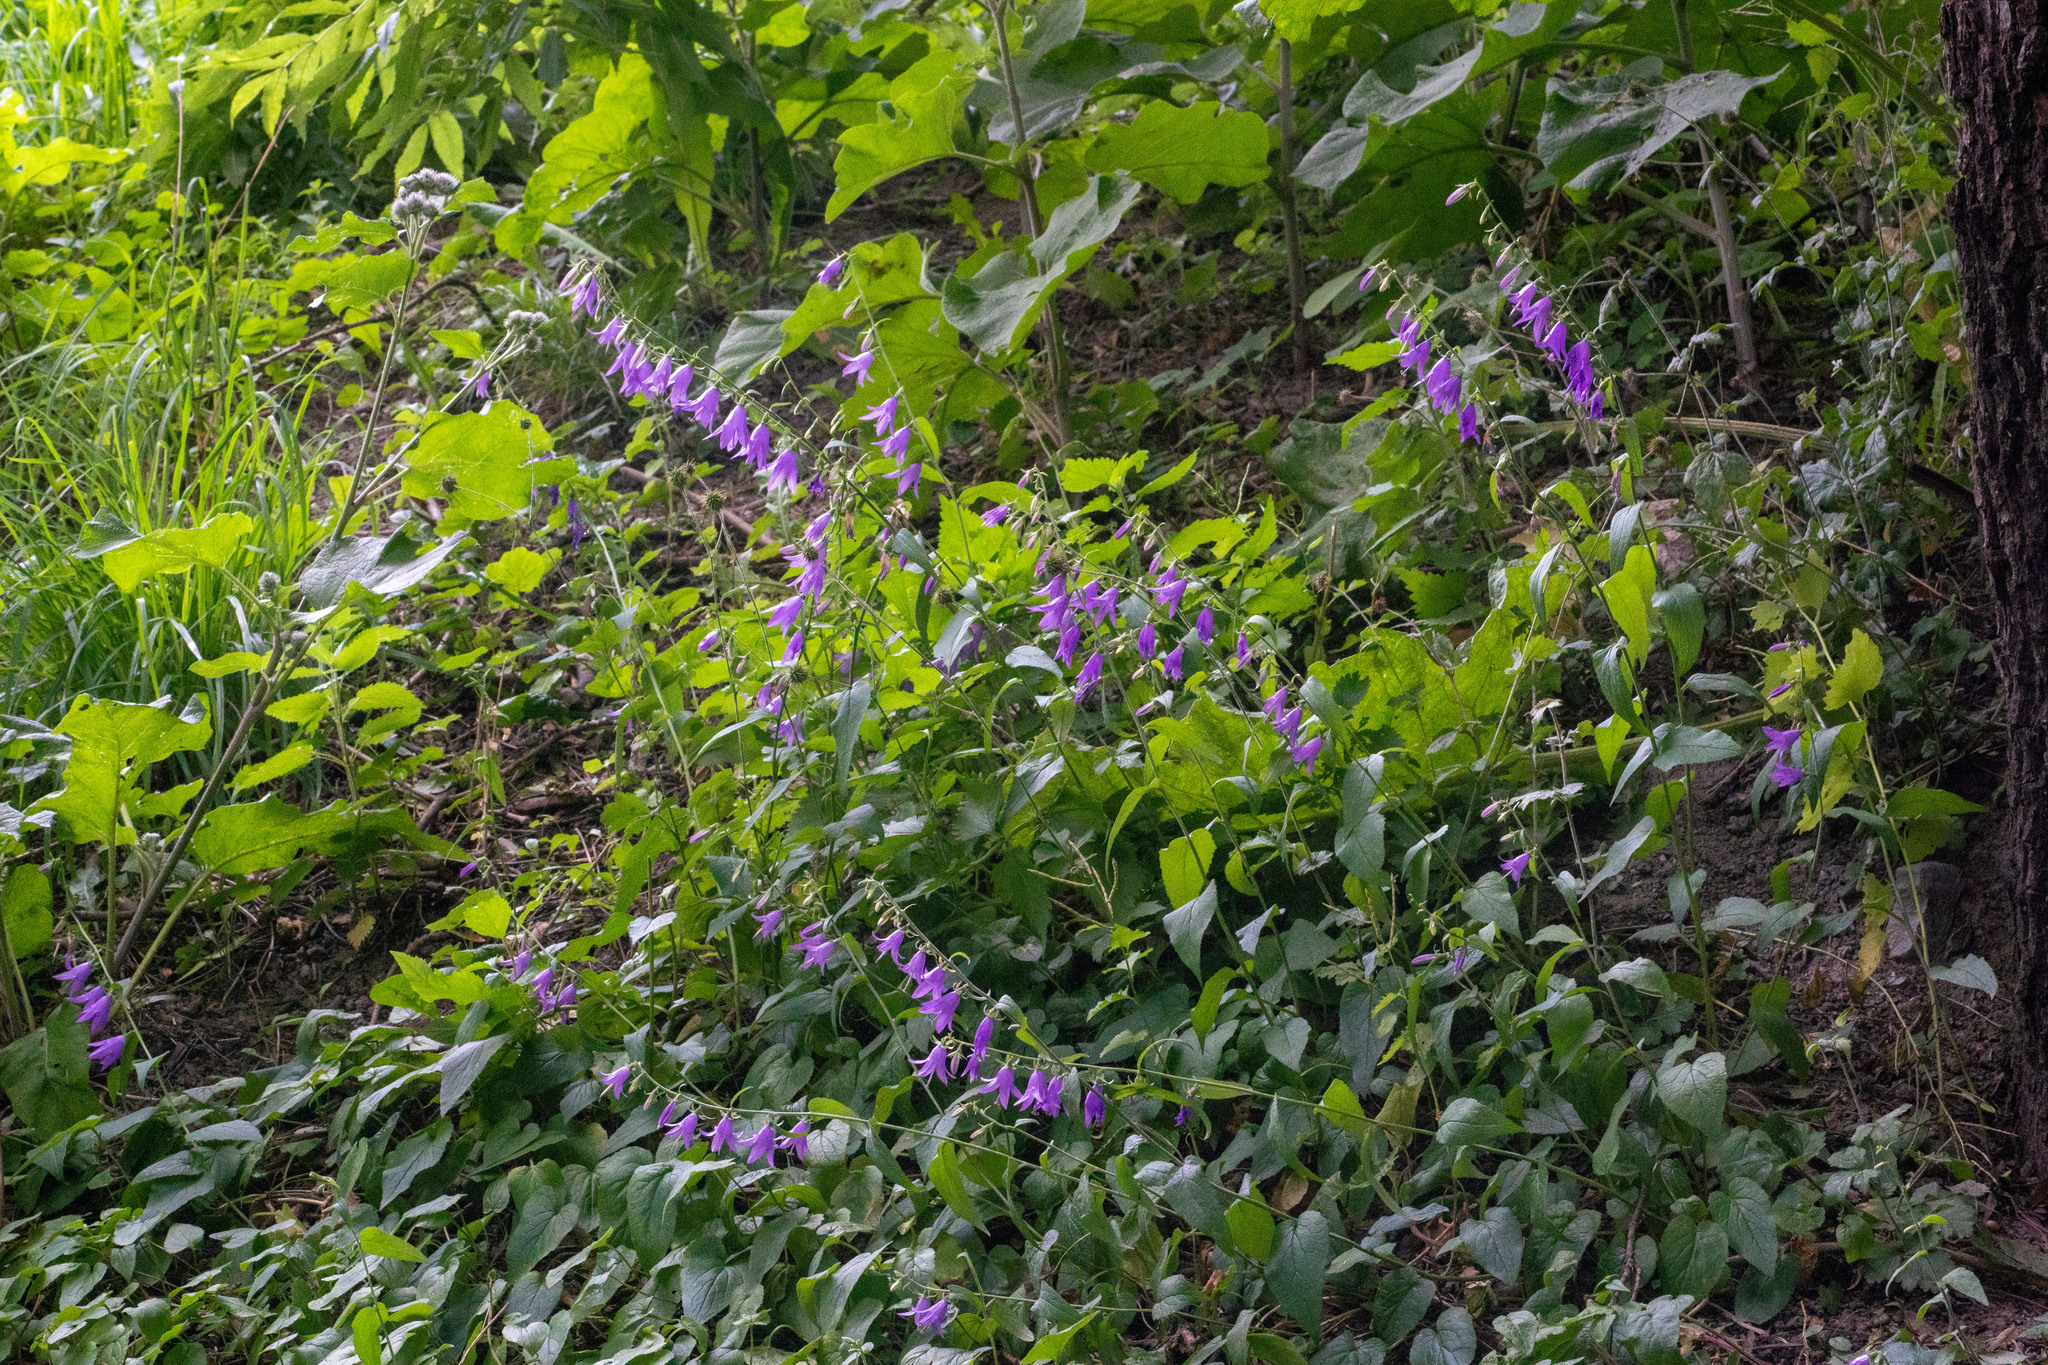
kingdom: Plantae
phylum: Tracheophyta
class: Magnoliopsida
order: Asterales
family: Campanulaceae
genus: Campanula
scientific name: Campanula rapunculoides
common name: Creeping bellflower
